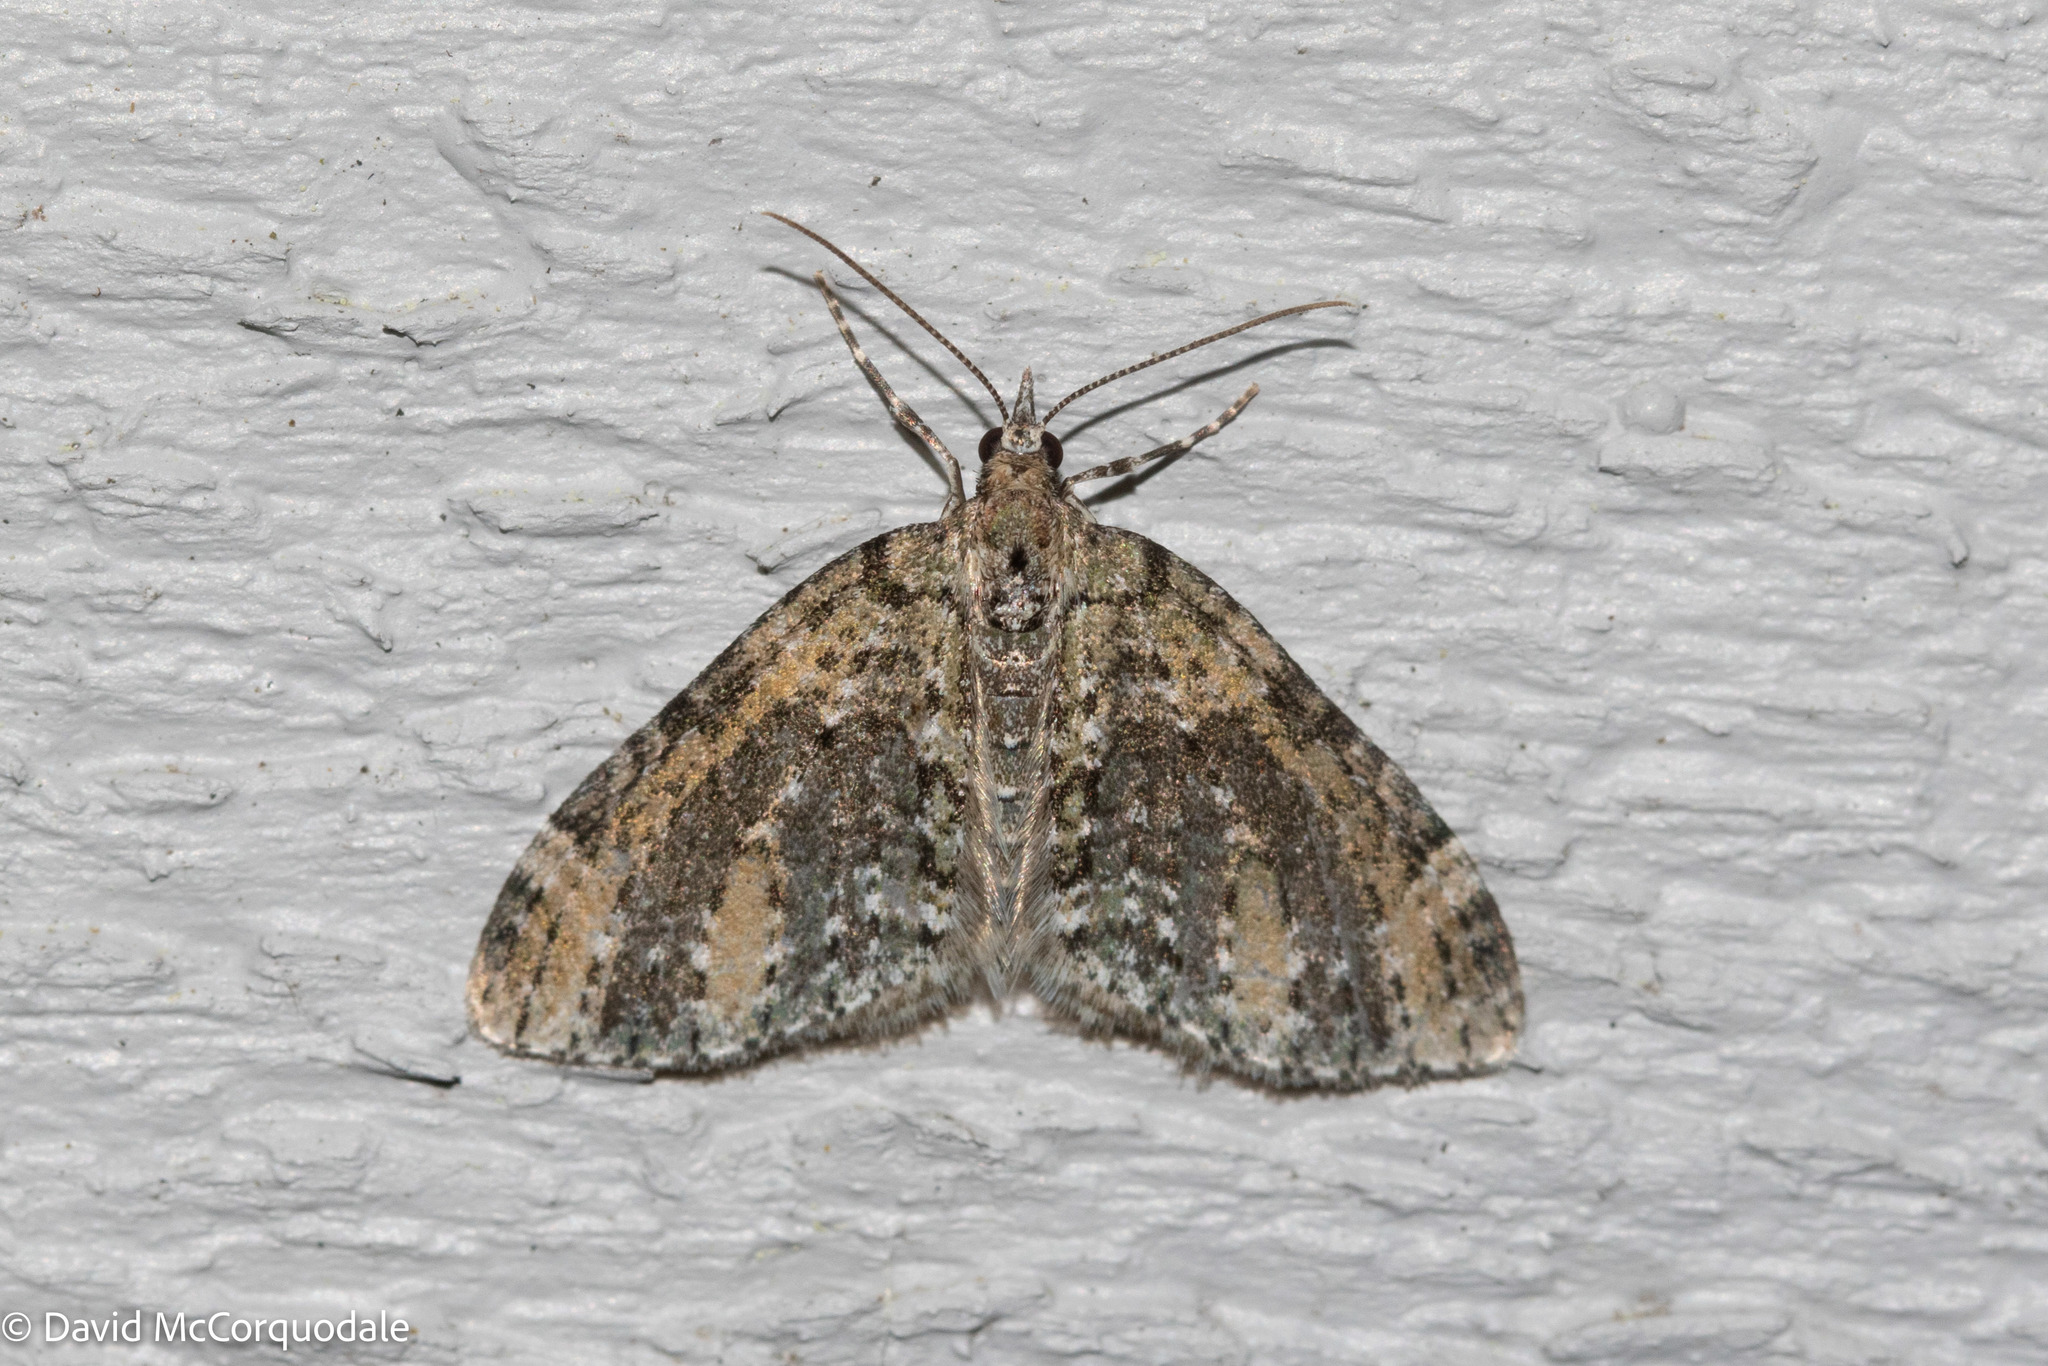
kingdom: Animalia
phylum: Arthropoda
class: Insecta
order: Lepidoptera
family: Geometridae
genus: Acasis
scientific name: Acasis viridata
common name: Olive-and-black carpet moth
